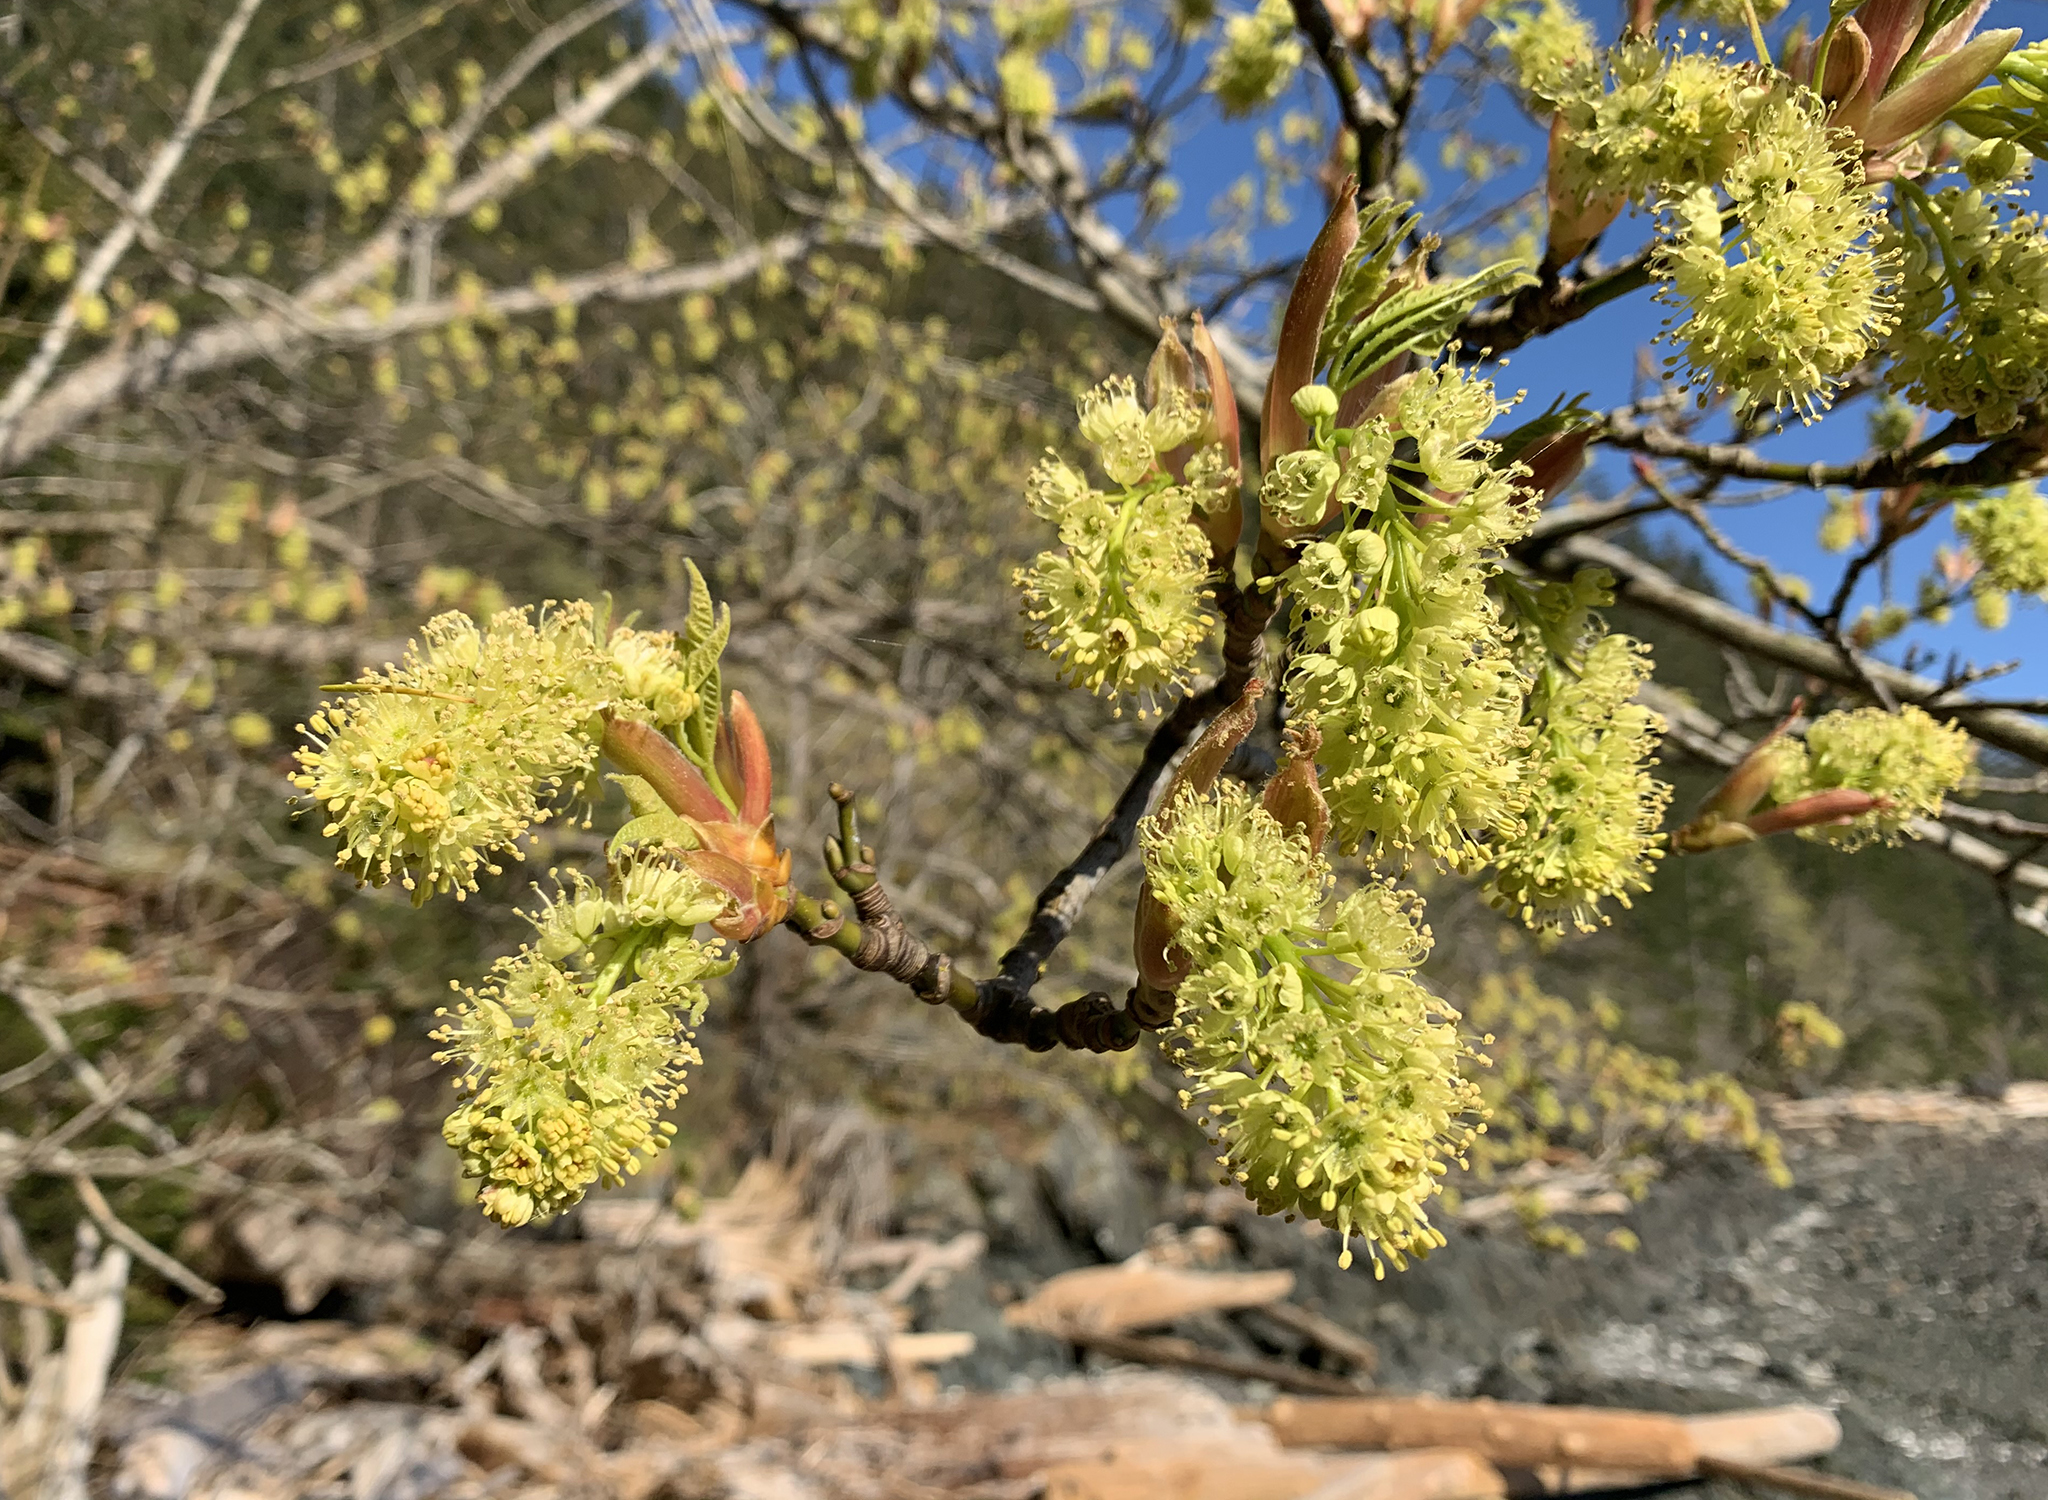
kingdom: Plantae
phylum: Tracheophyta
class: Magnoliopsida
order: Sapindales
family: Sapindaceae
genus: Acer
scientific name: Acer macrophyllum
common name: Oregon maple
